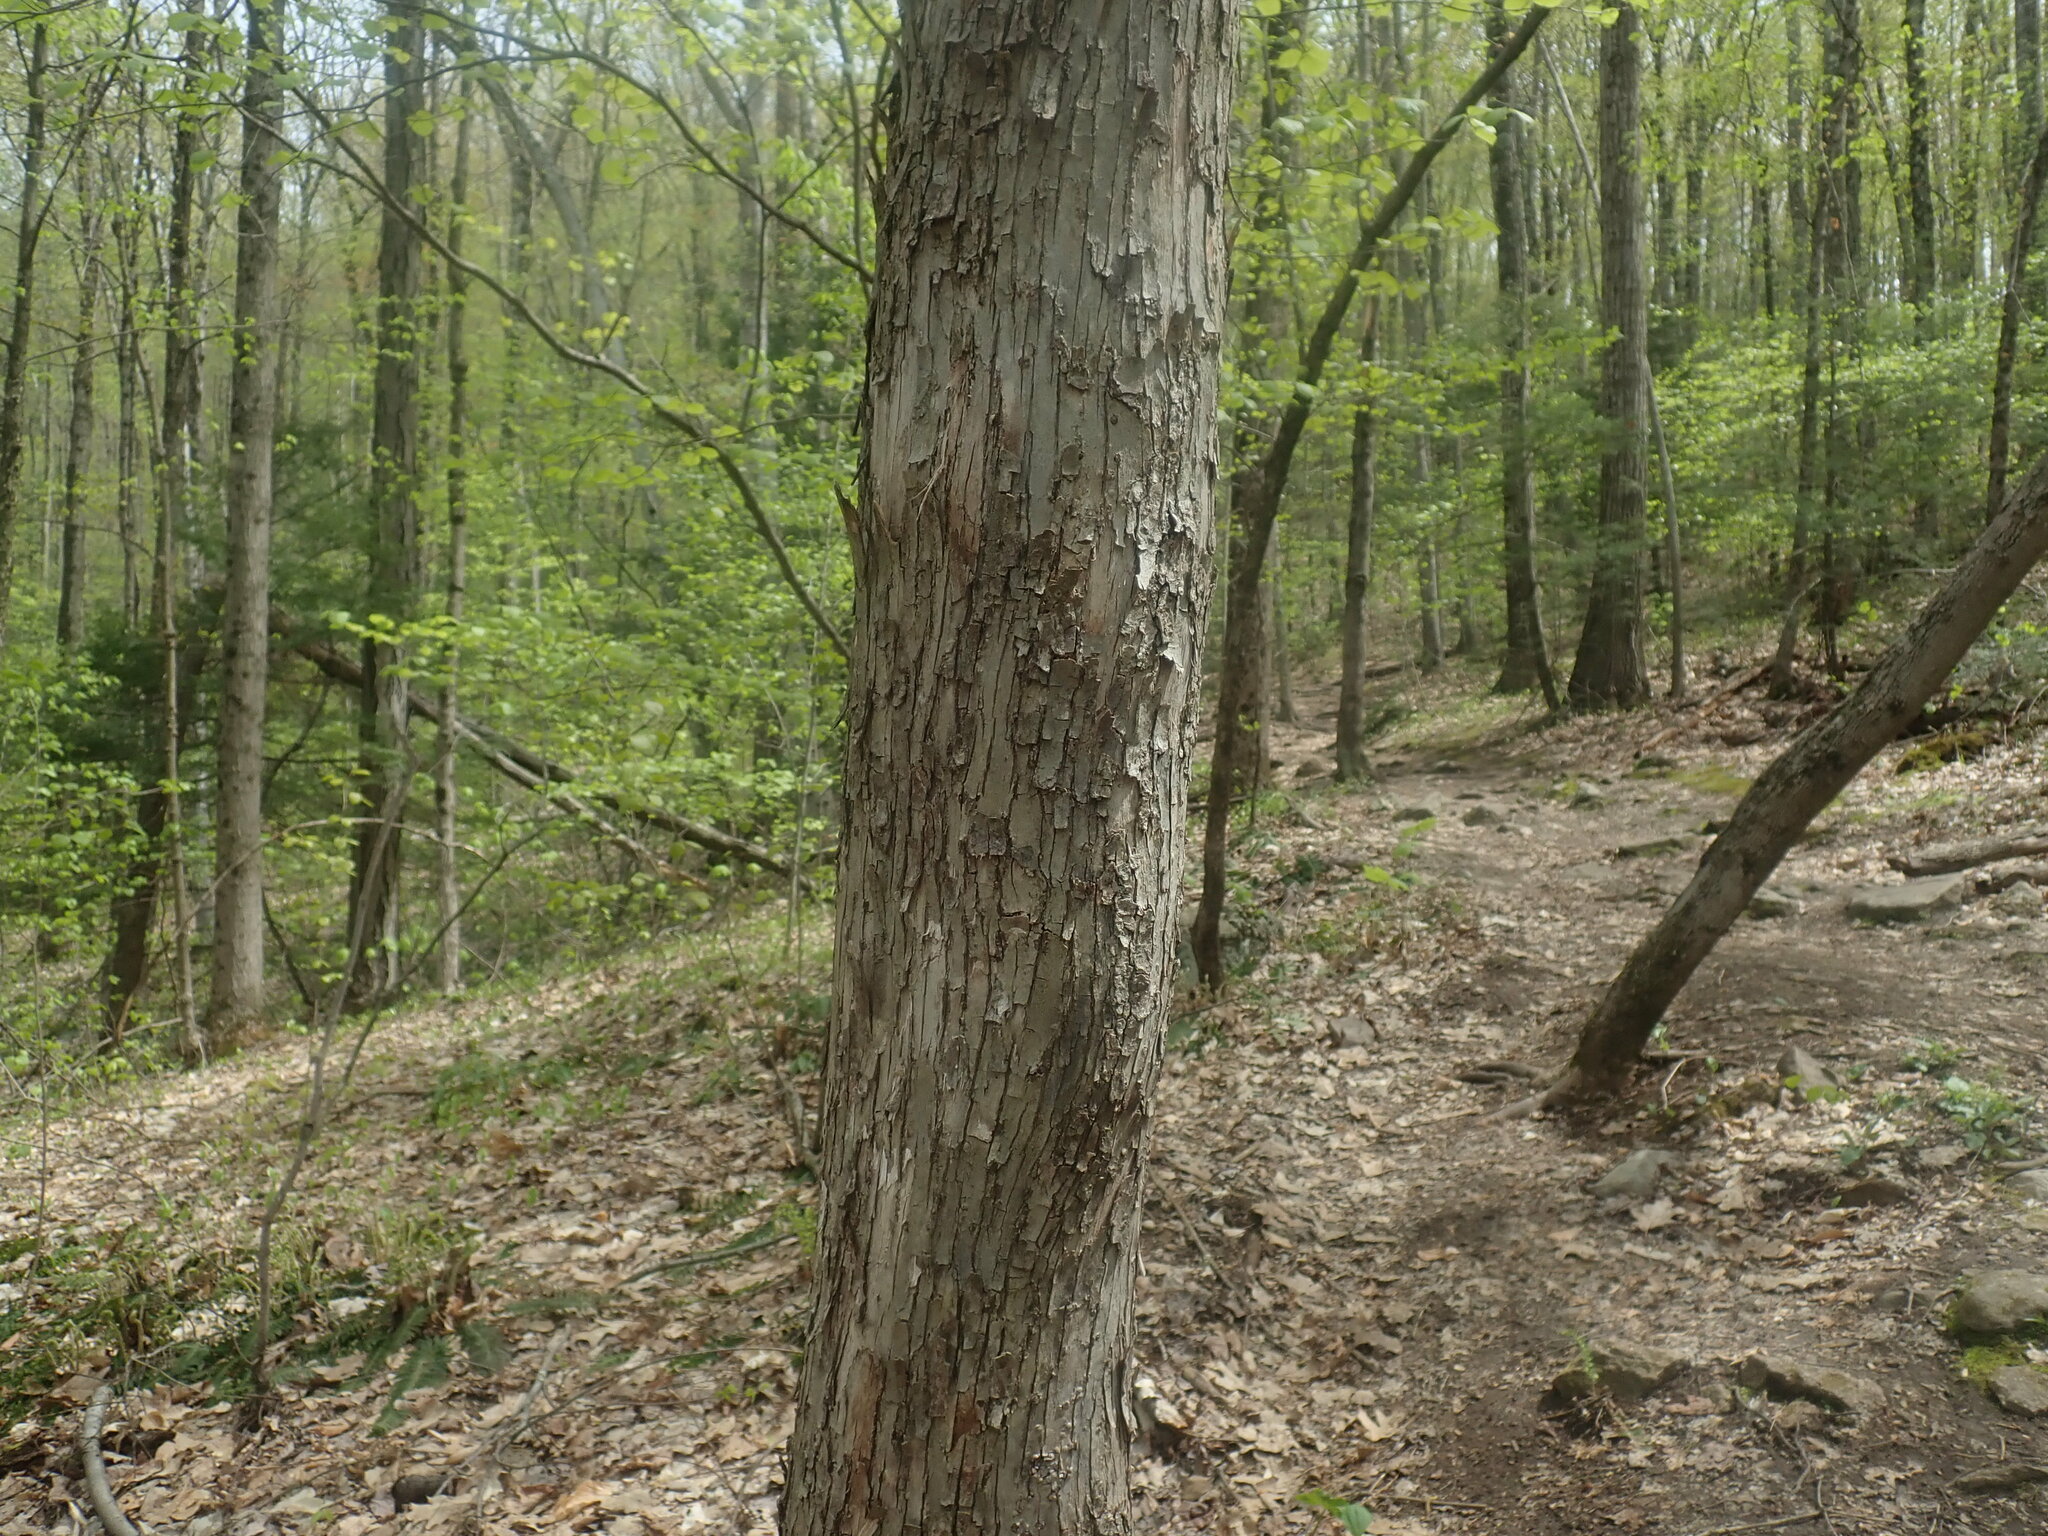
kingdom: Plantae
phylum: Tracheophyta
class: Magnoliopsida
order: Fagales
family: Betulaceae
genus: Ostrya
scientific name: Ostrya virginiana
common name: Ironwood
